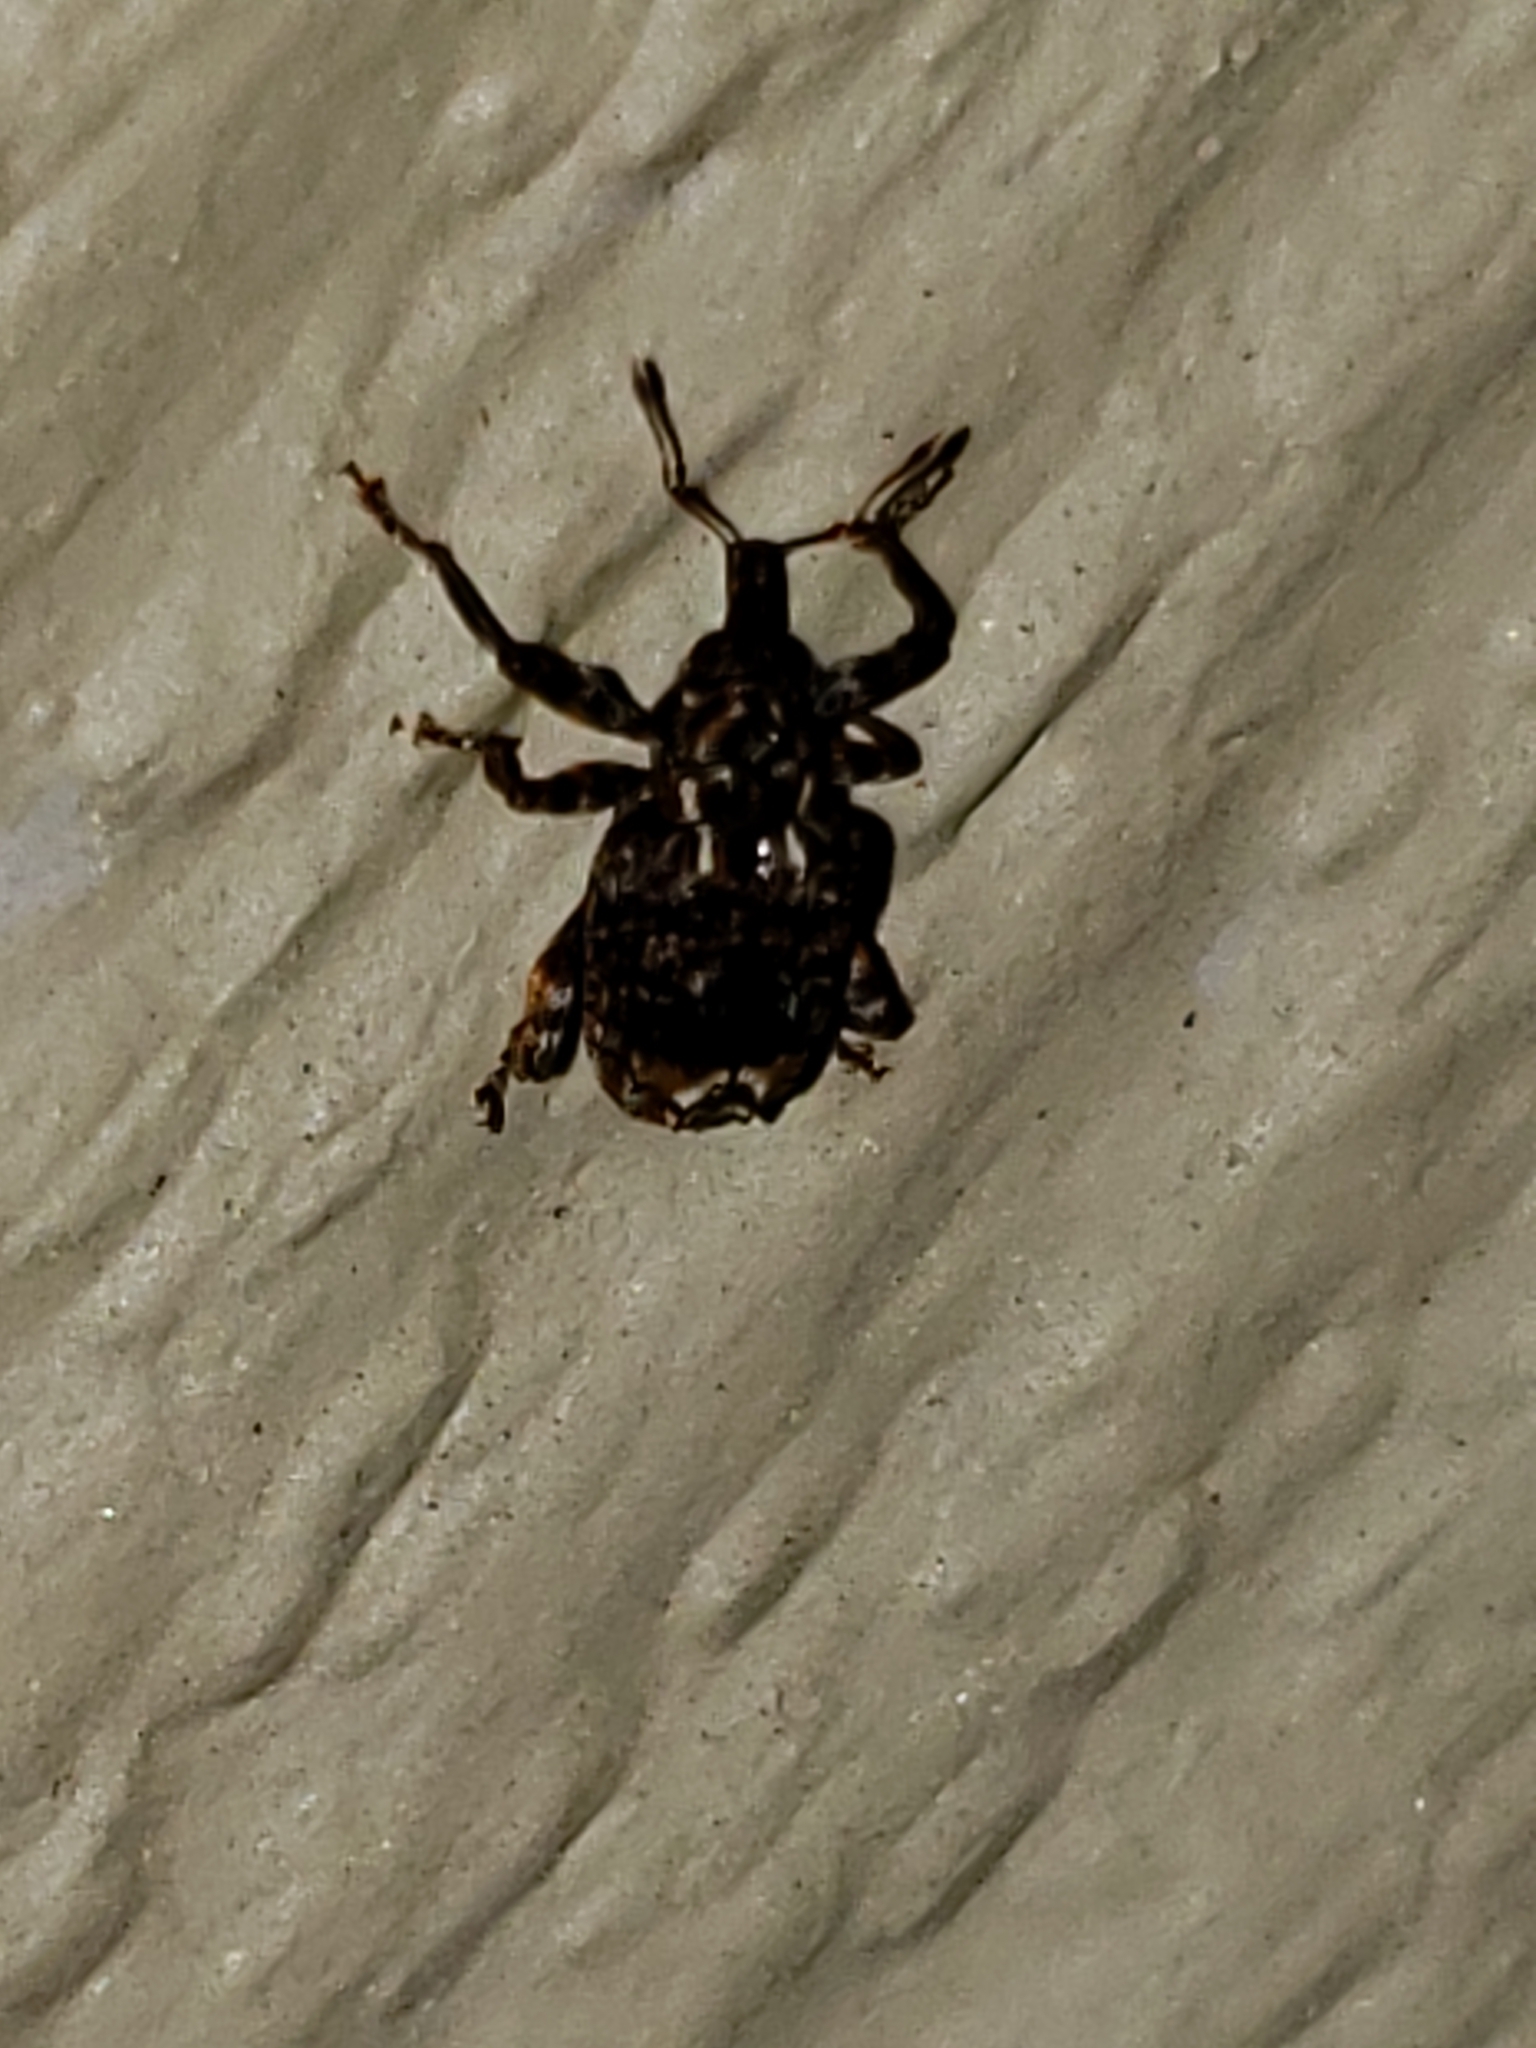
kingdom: Animalia
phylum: Arthropoda
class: Insecta
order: Coleoptera
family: Curculionidae
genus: Conotrachelus
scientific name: Conotrachelus nenuphar
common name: Plum curculio
